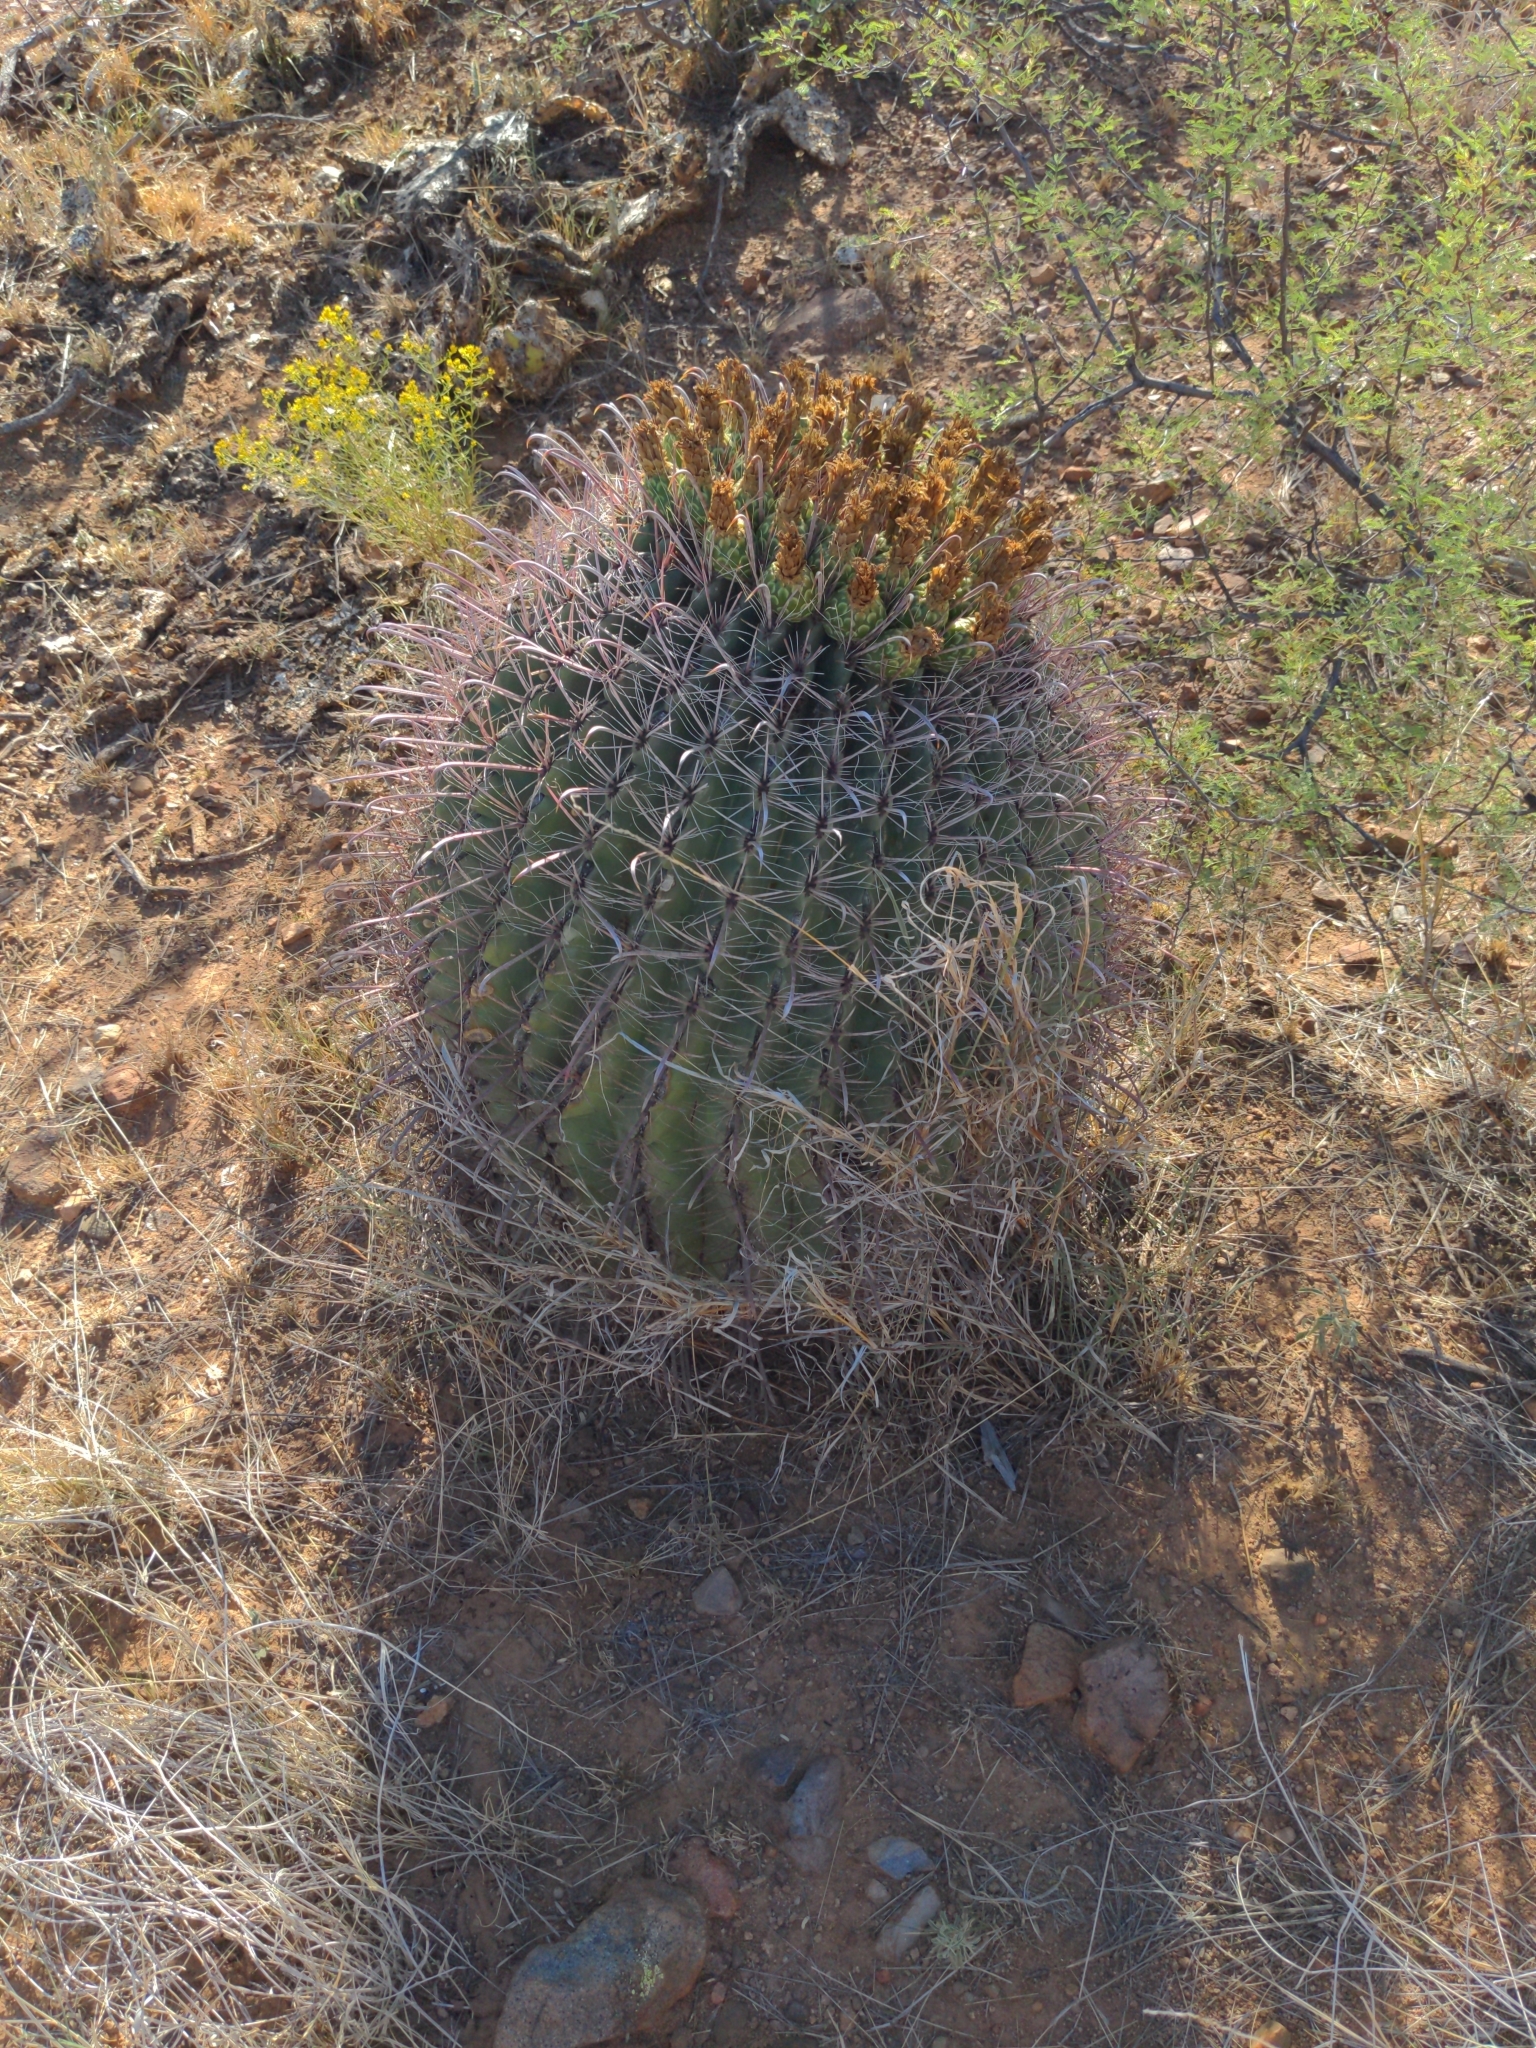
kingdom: Plantae
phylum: Tracheophyta
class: Magnoliopsida
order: Caryophyllales
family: Cactaceae
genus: Ferocactus
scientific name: Ferocactus wislizeni
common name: Candy barrel cactus
